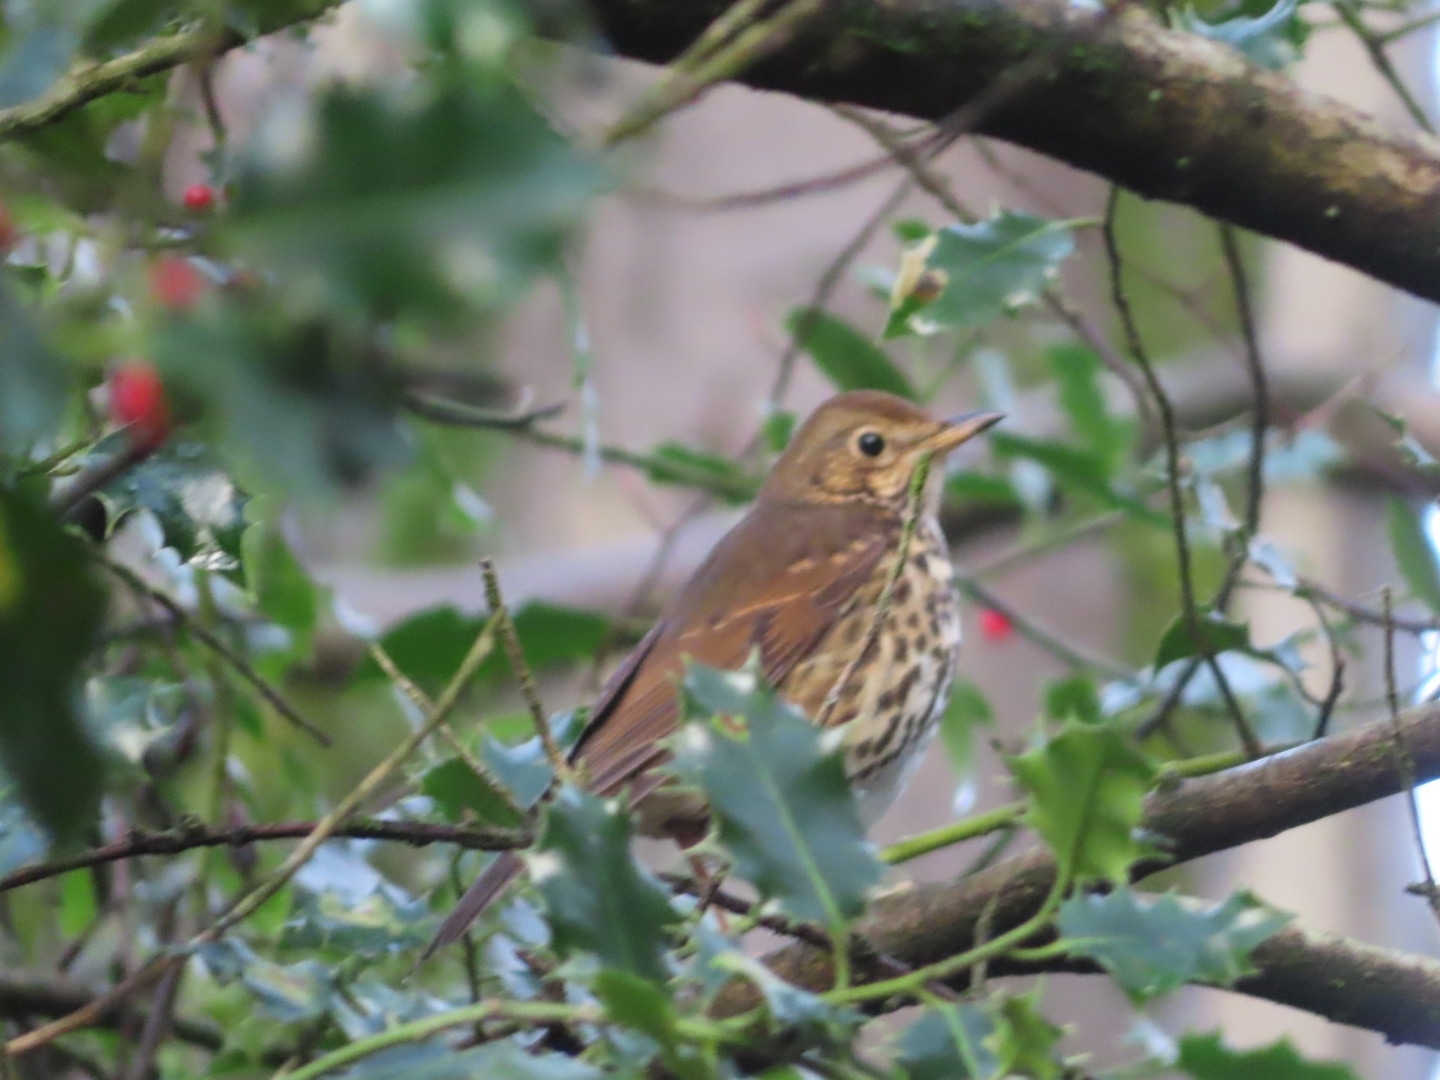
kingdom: Animalia
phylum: Chordata
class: Aves
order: Passeriformes
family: Turdidae
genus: Turdus
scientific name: Turdus philomelos
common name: Song thrush
